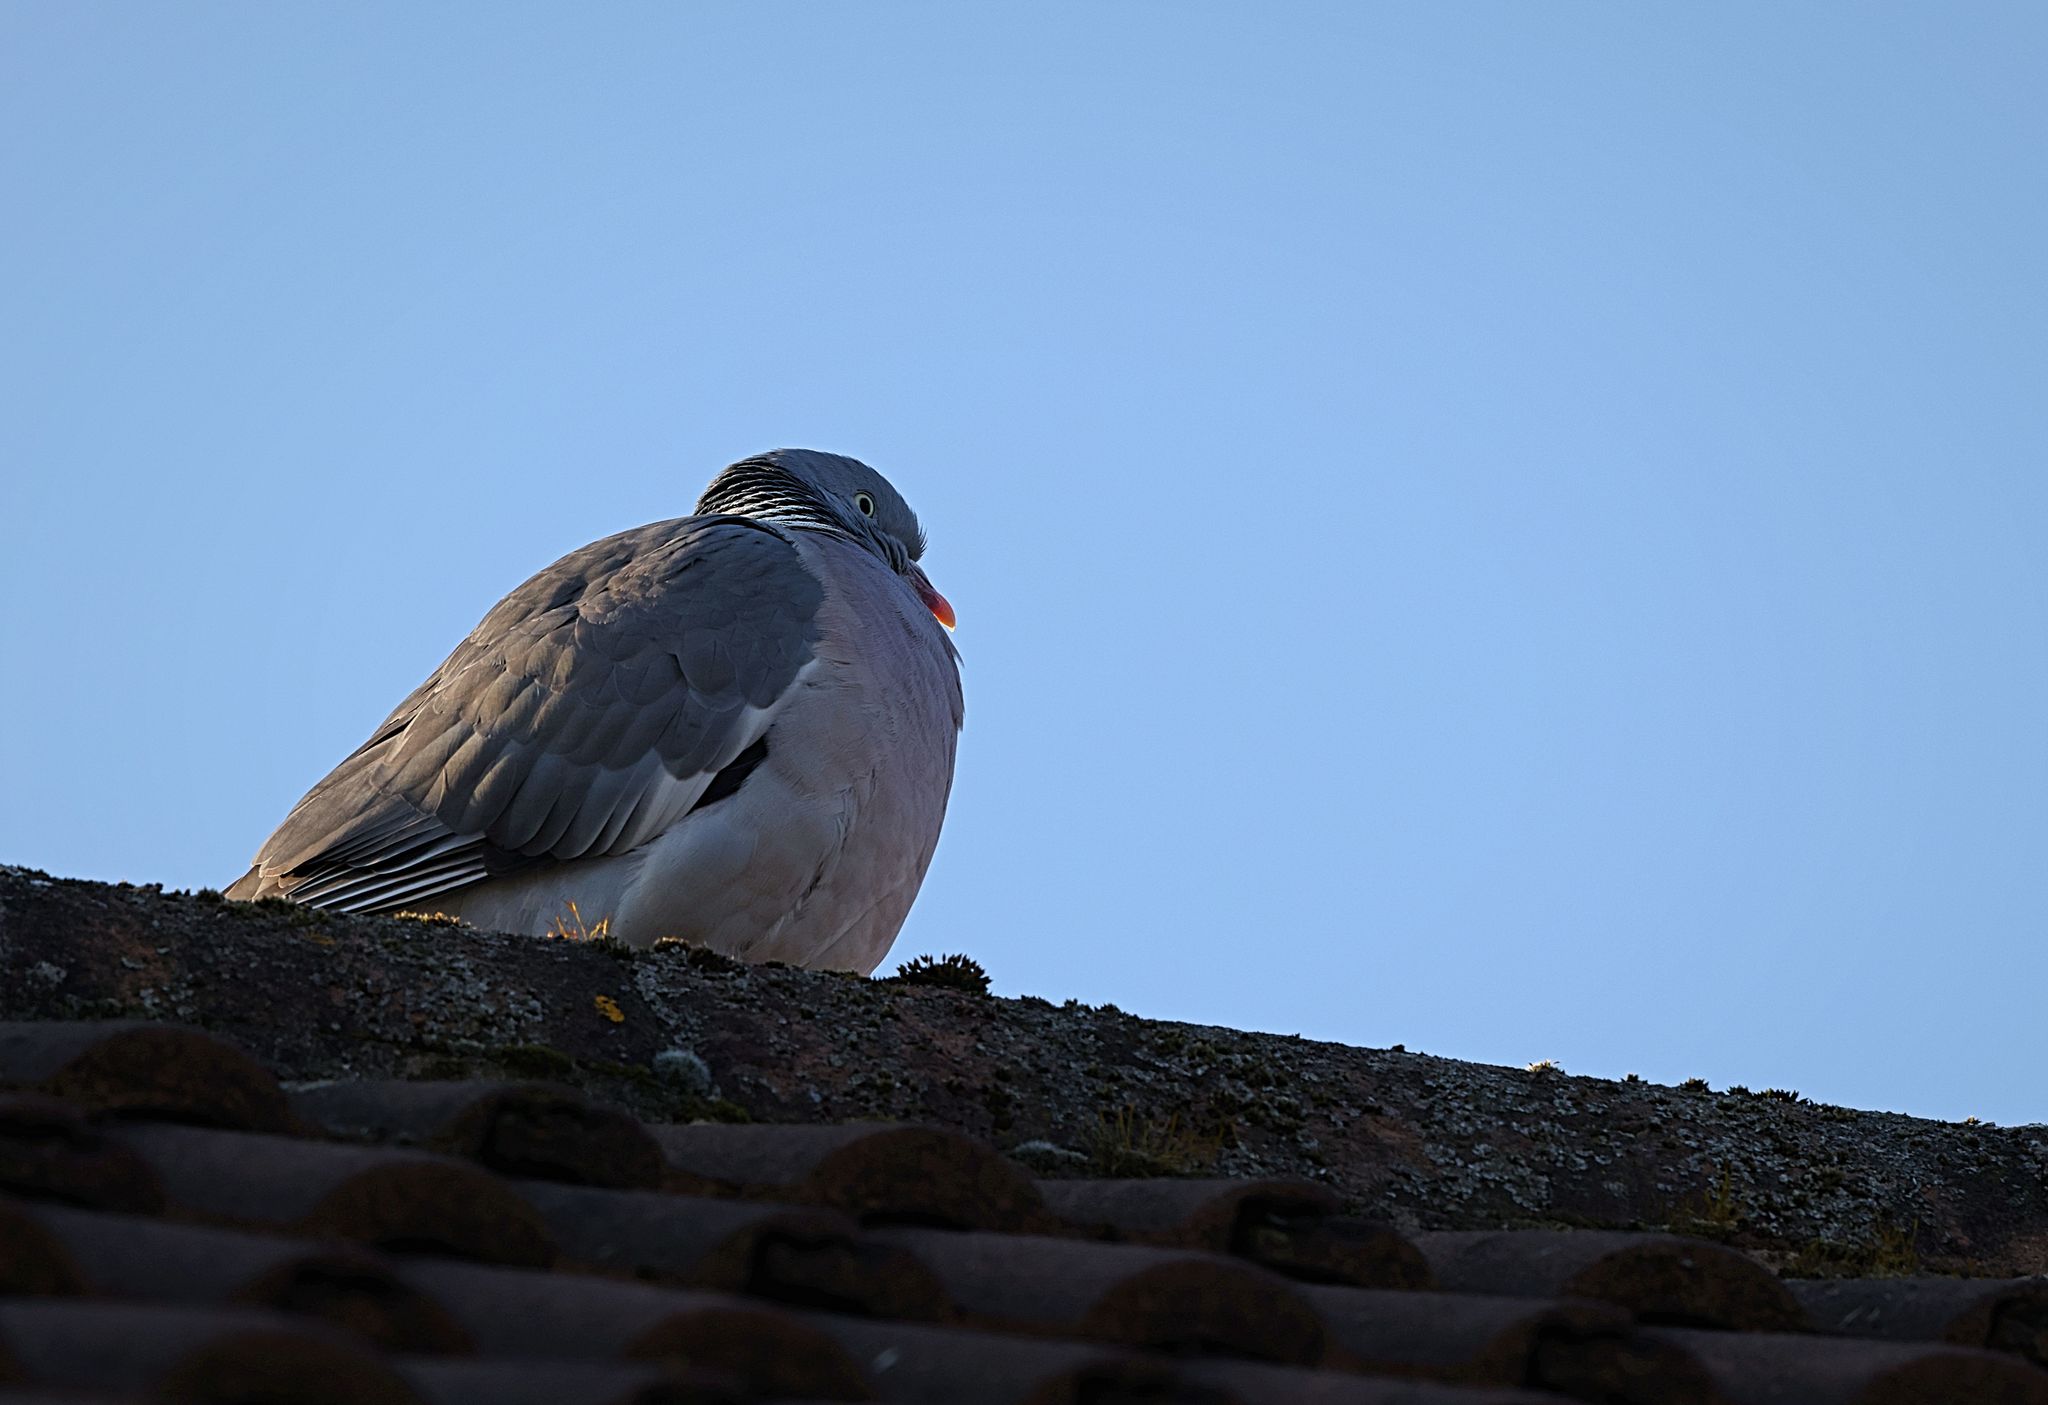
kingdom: Animalia
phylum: Chordata
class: Aves
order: Columbiformes
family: Columbidae
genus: Columba
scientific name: Columba palumbus
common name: Common wood pigeon
